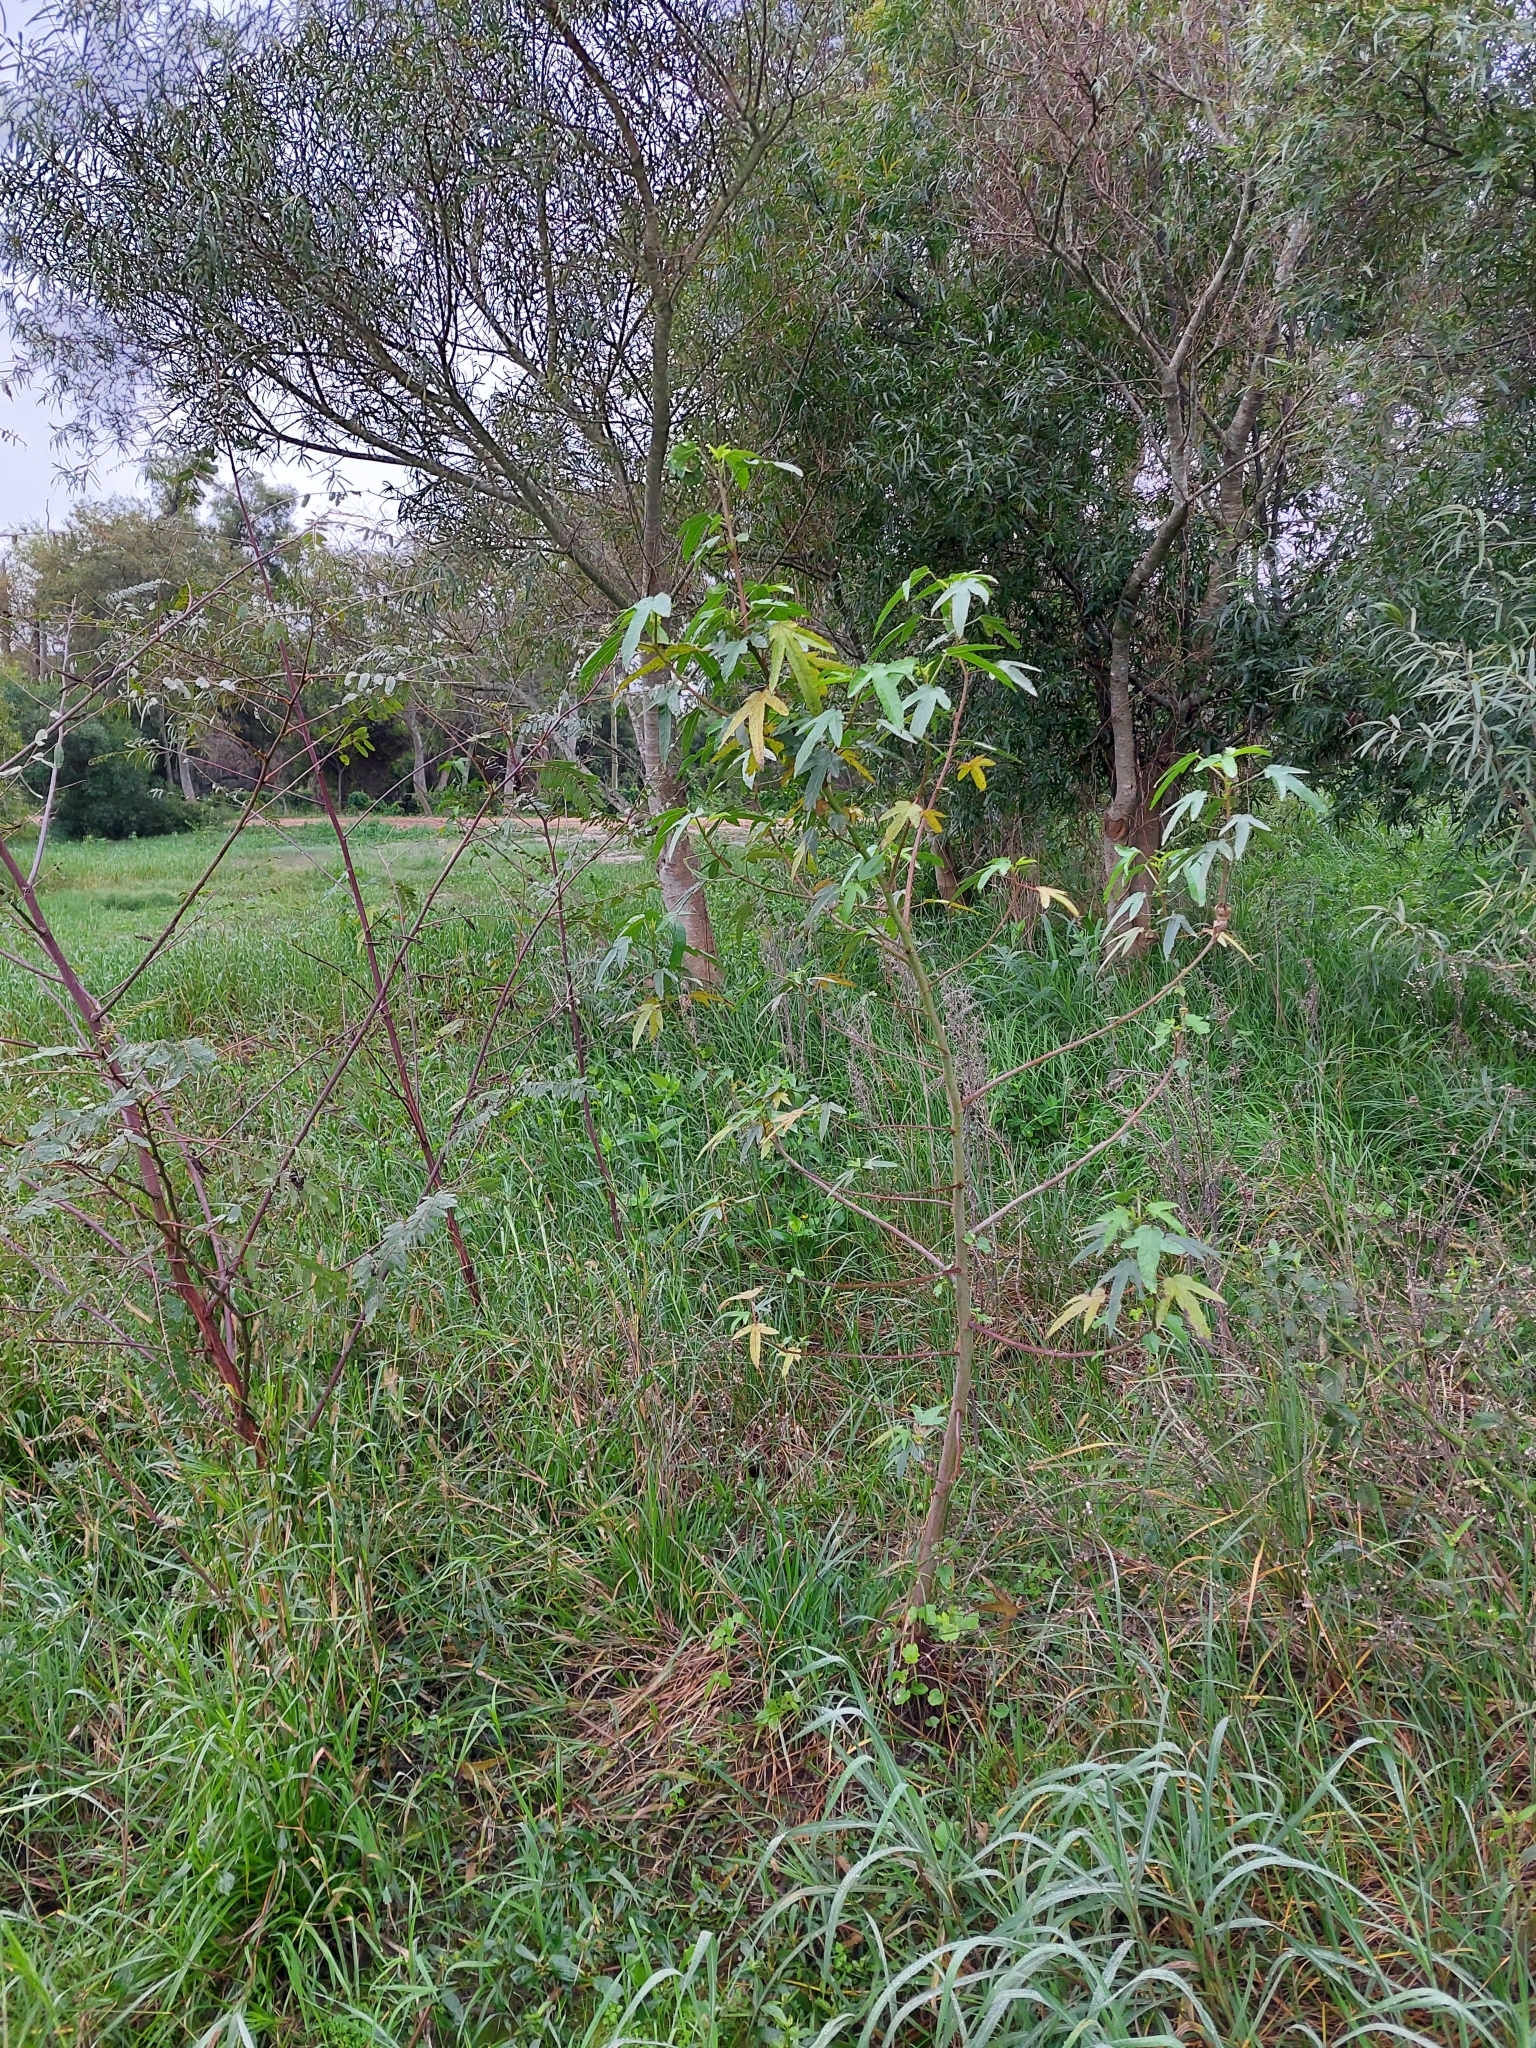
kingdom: Plantae
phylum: Tracheophyta
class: Magnoliopsida
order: Malvales
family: Malvaceae
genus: Hibiscus
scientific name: Hibiscus striatus
